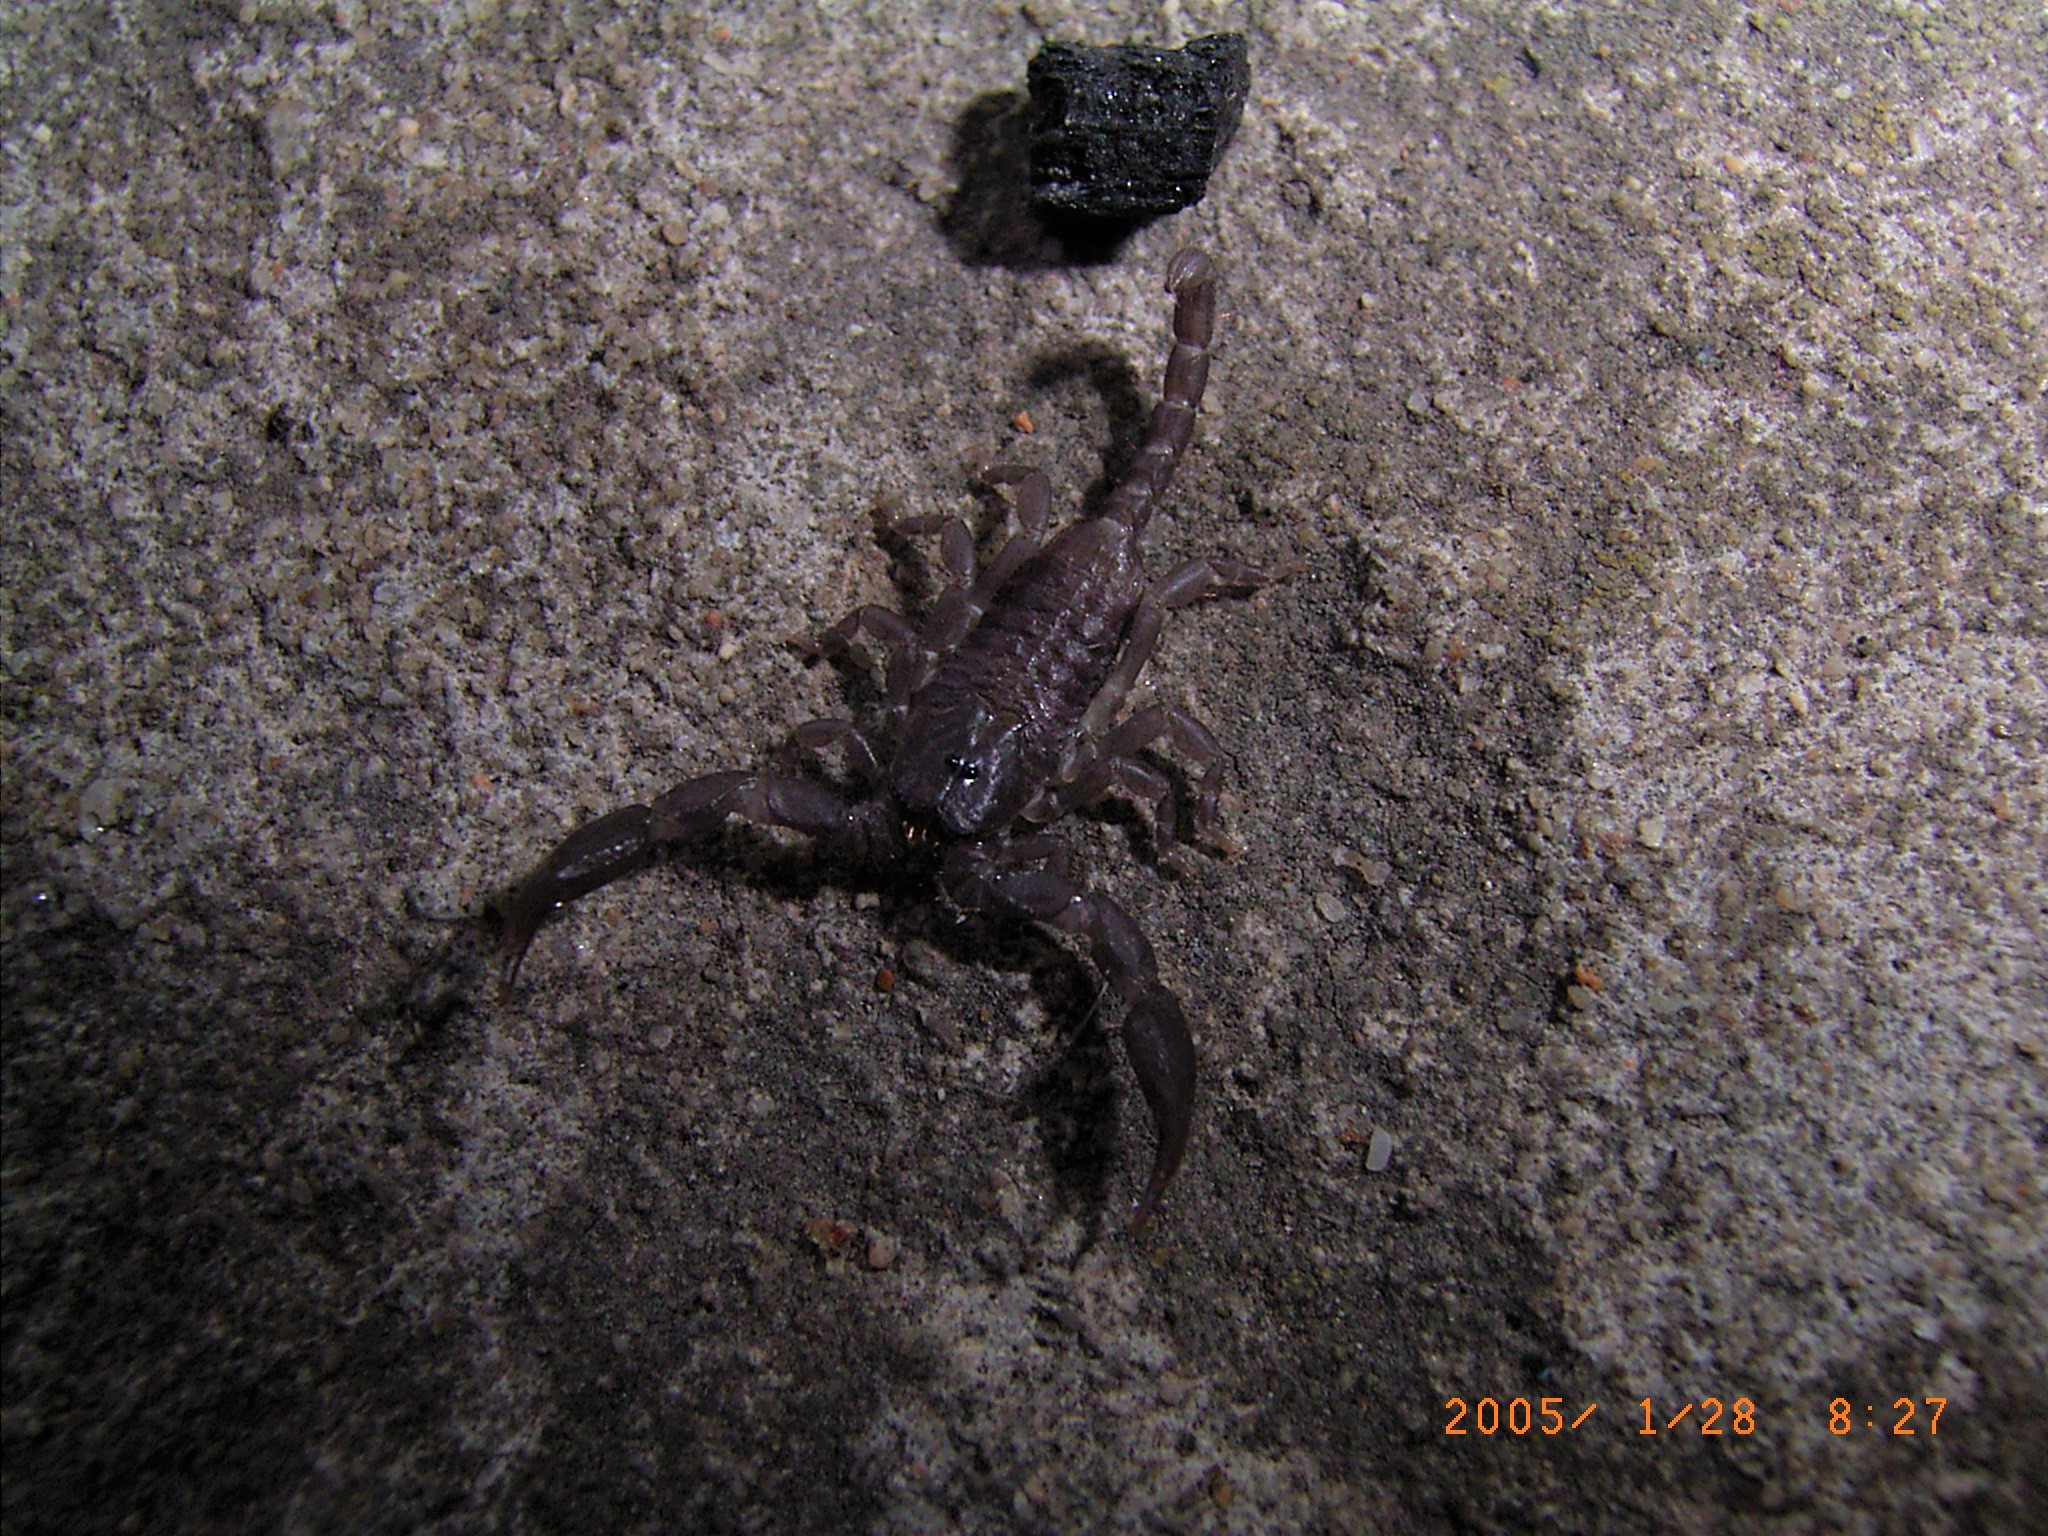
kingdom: Animalia
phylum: Arthropoda
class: Arachnida
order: Scorpiones
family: Hormuridae
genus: Opisthacanthus
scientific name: Opisthacanthus capensis
